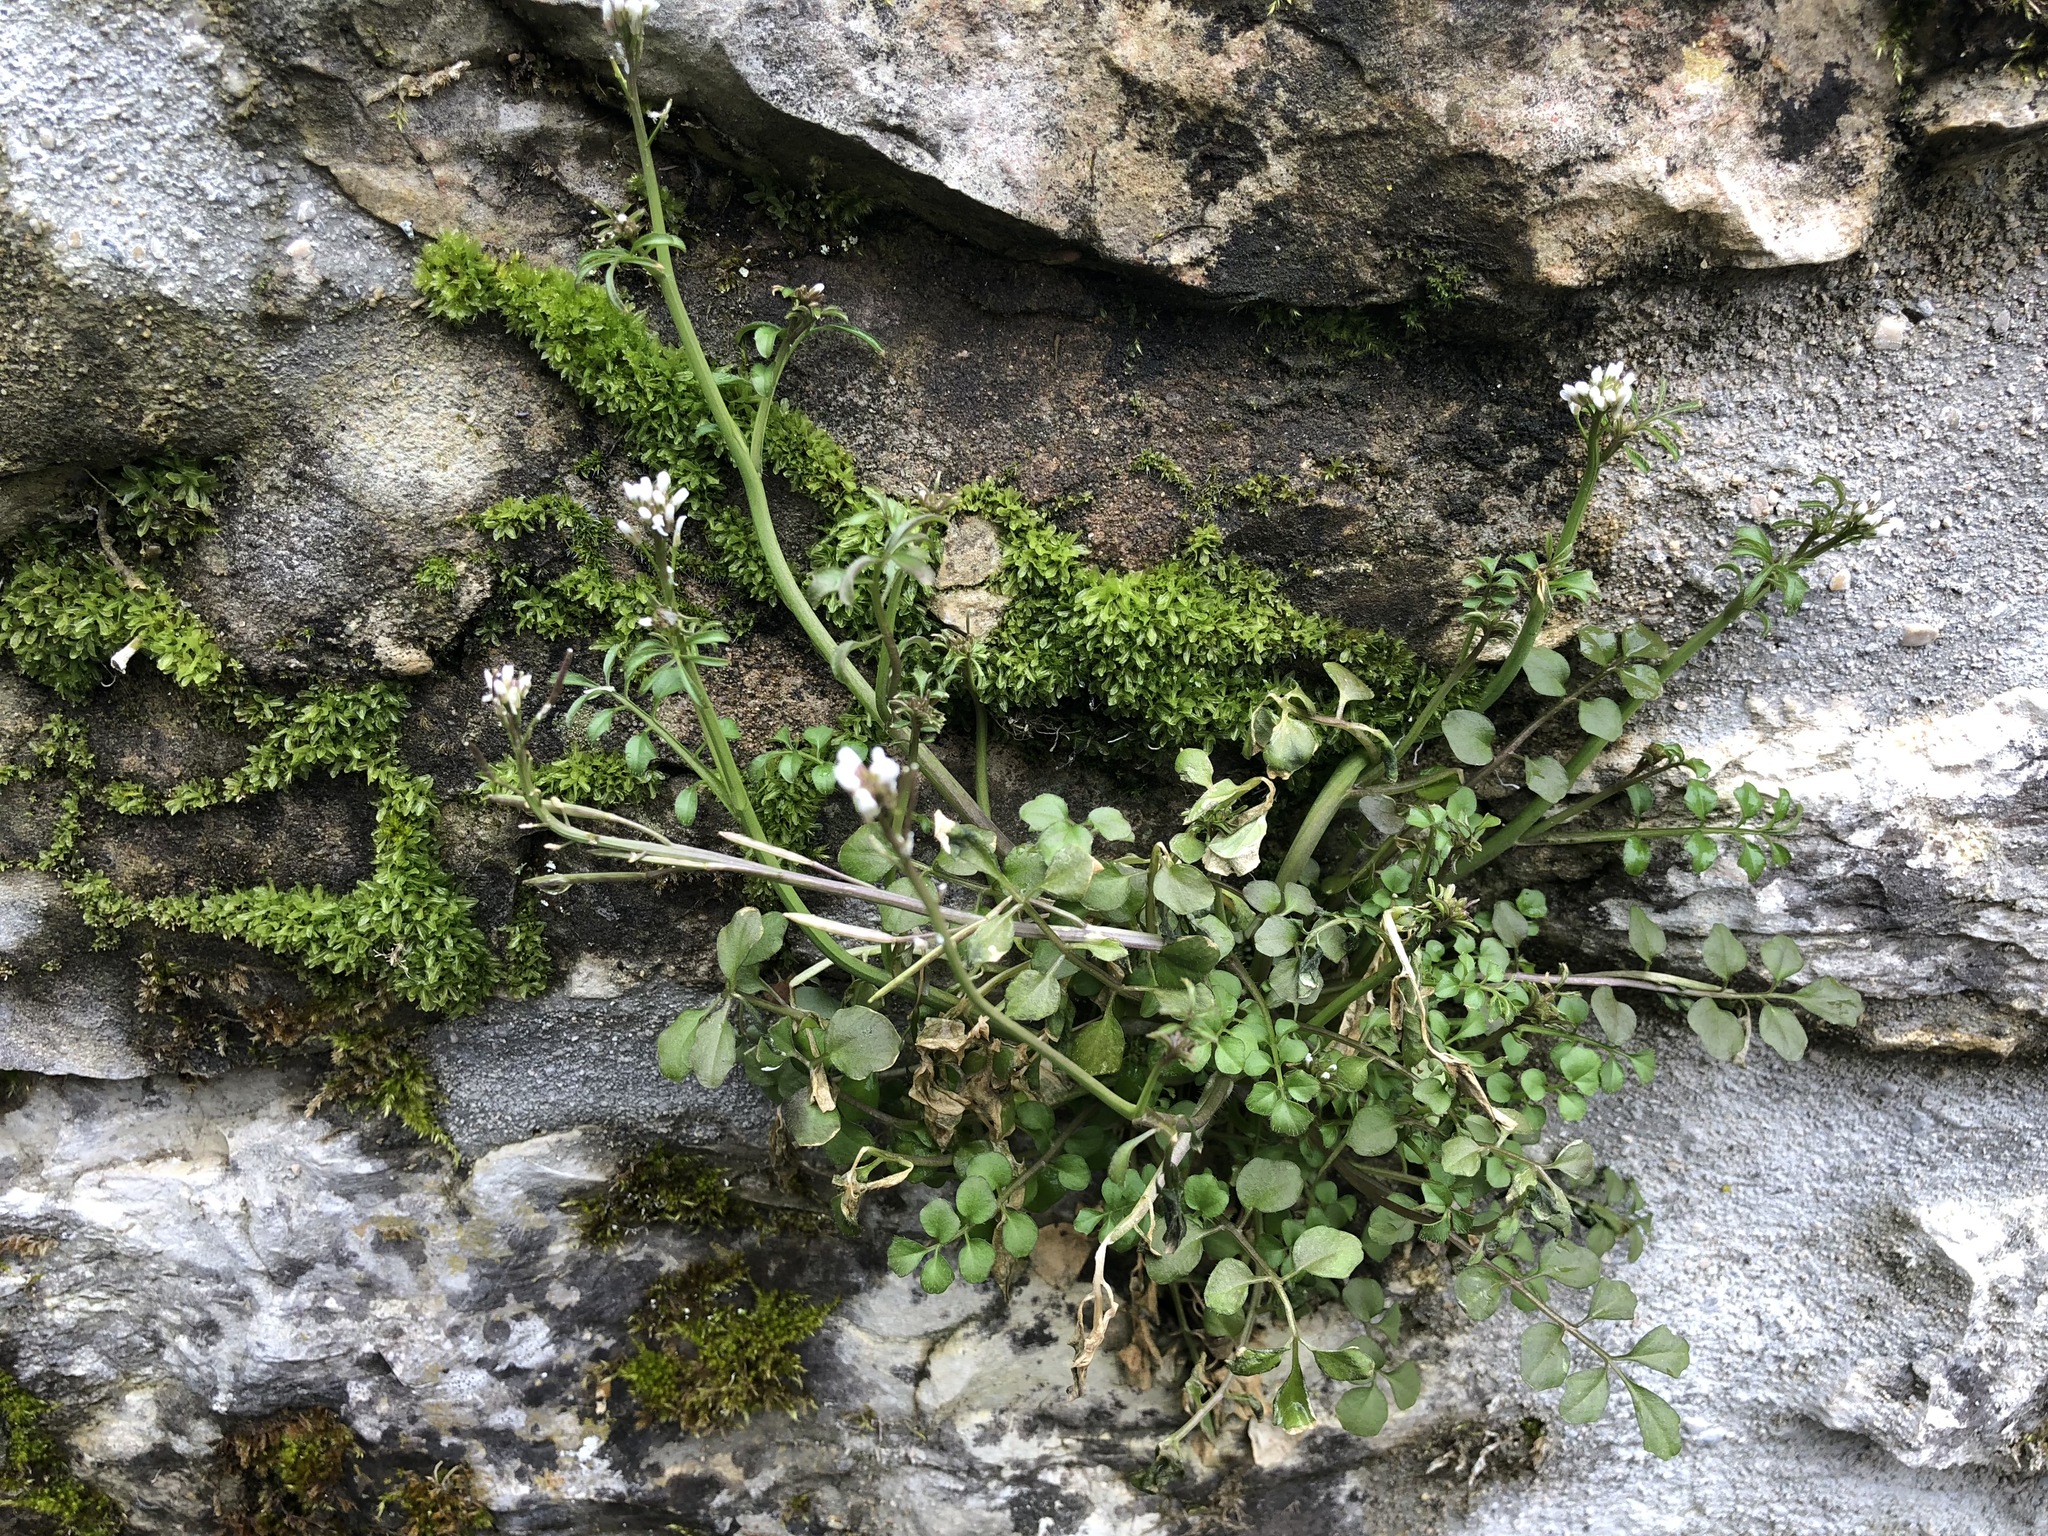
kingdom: Plantae
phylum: Tracheophyta
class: Magnoliopsida
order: Brassicales
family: Brassicaceae
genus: Cardamine
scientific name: Cardamine hirsuta
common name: Hairy bittercress
